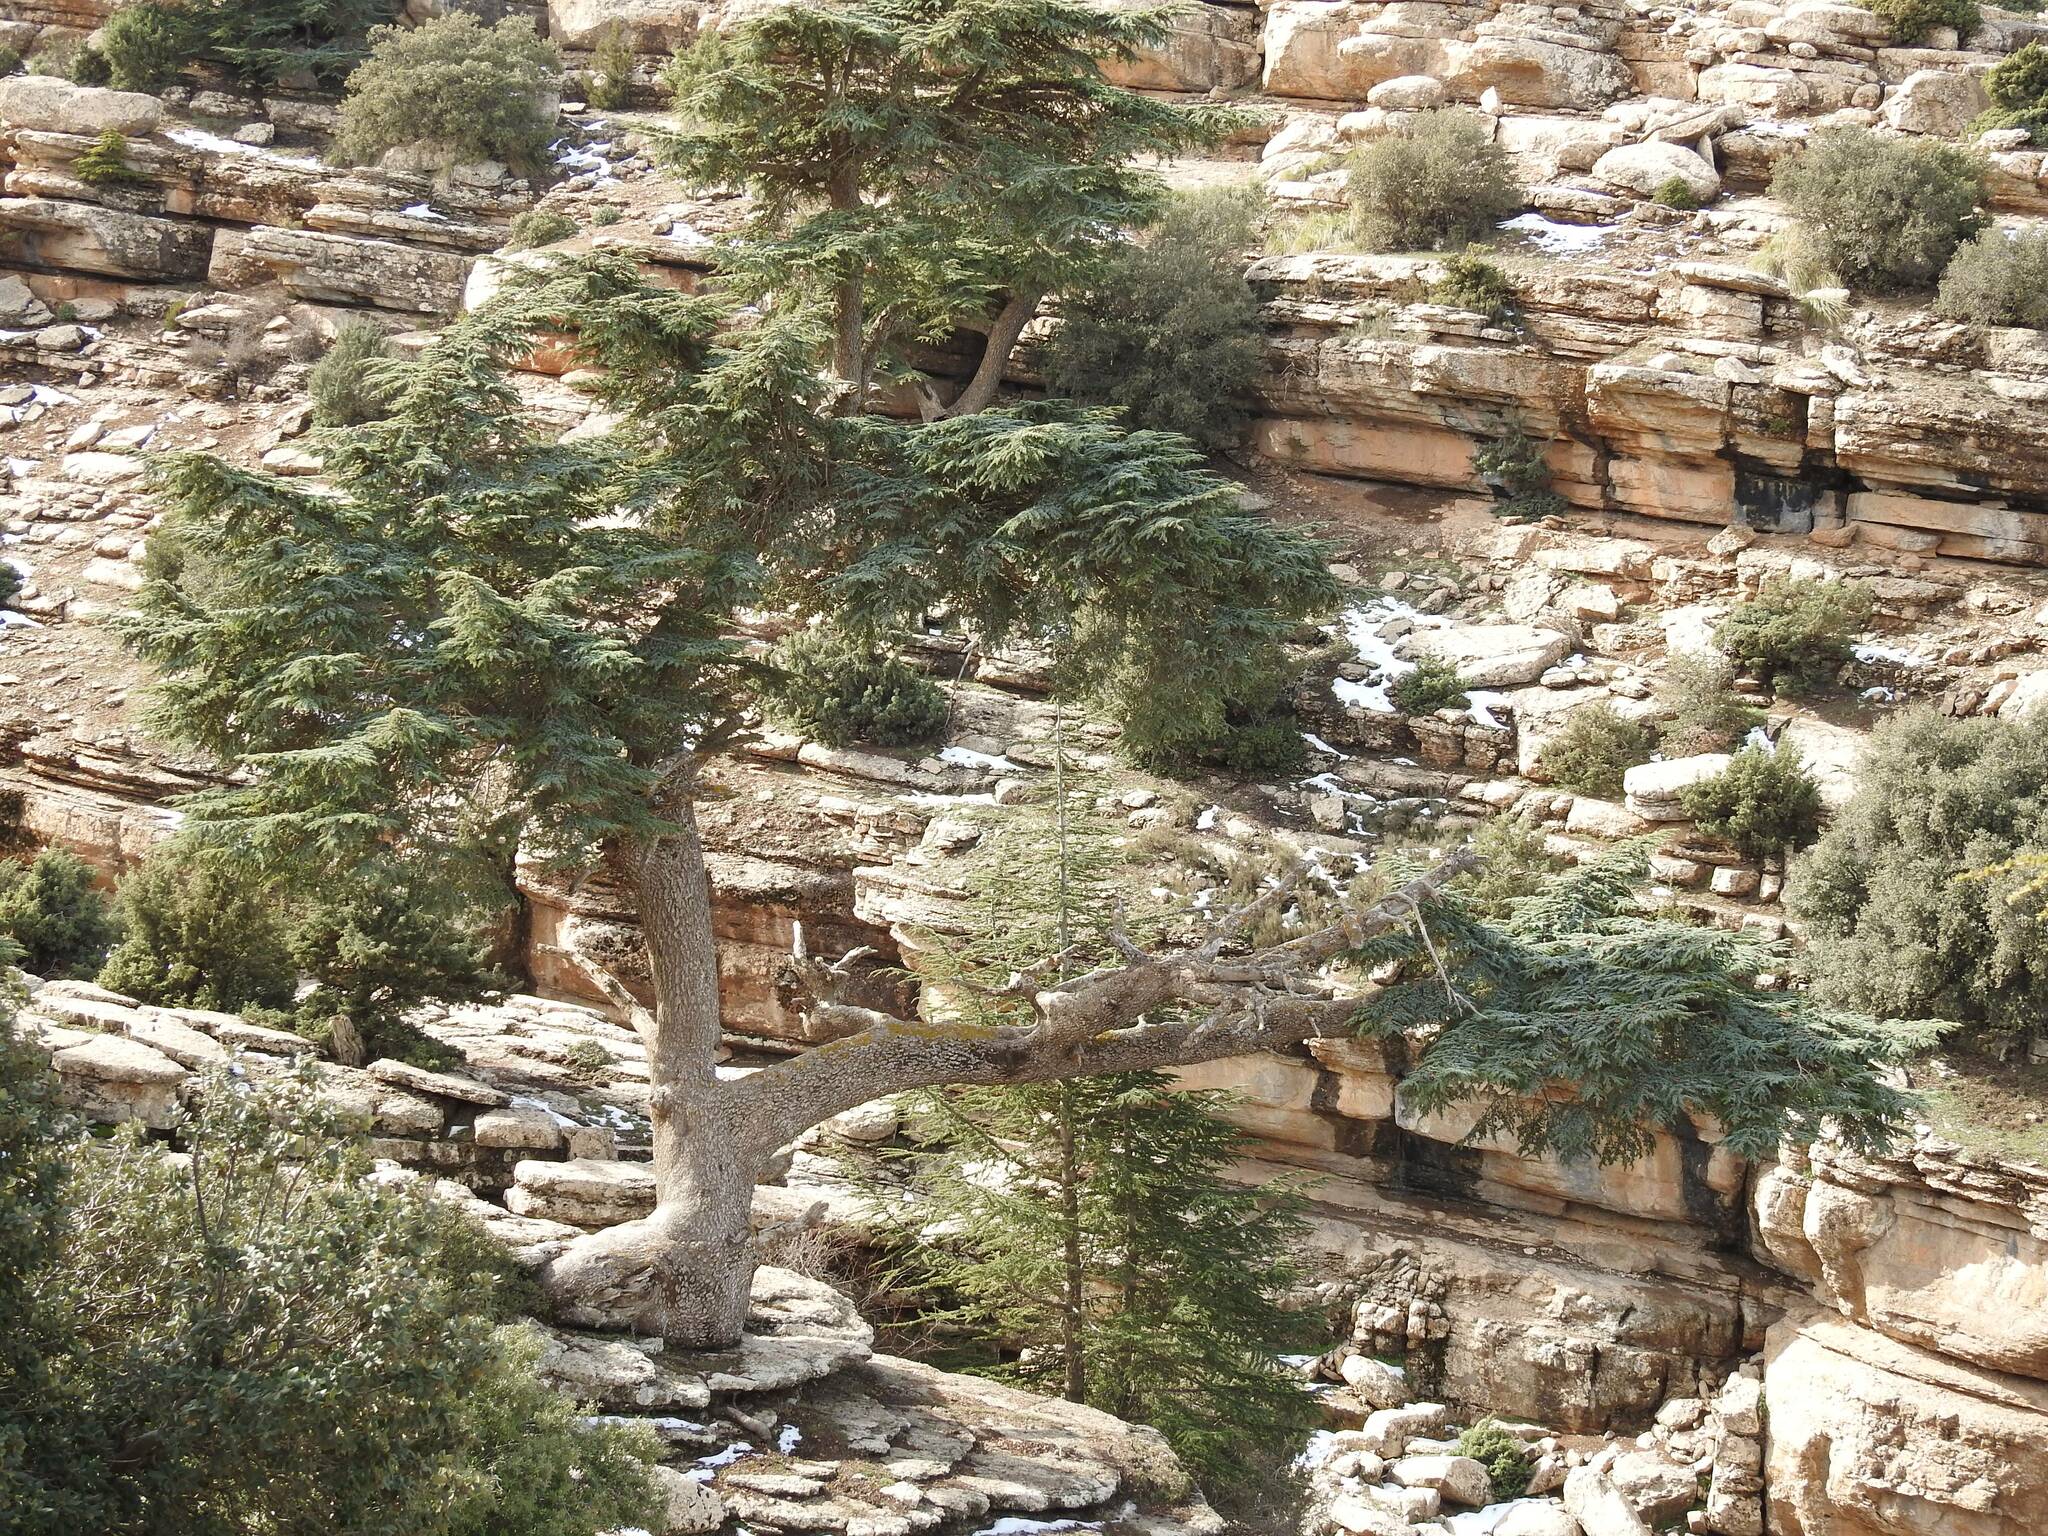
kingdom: Plantae
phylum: Tracheophyta
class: Pinopsida
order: Pinales
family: Pinaceae
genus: Cedrus
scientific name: Cedrus atlantica
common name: Atlas cedar
